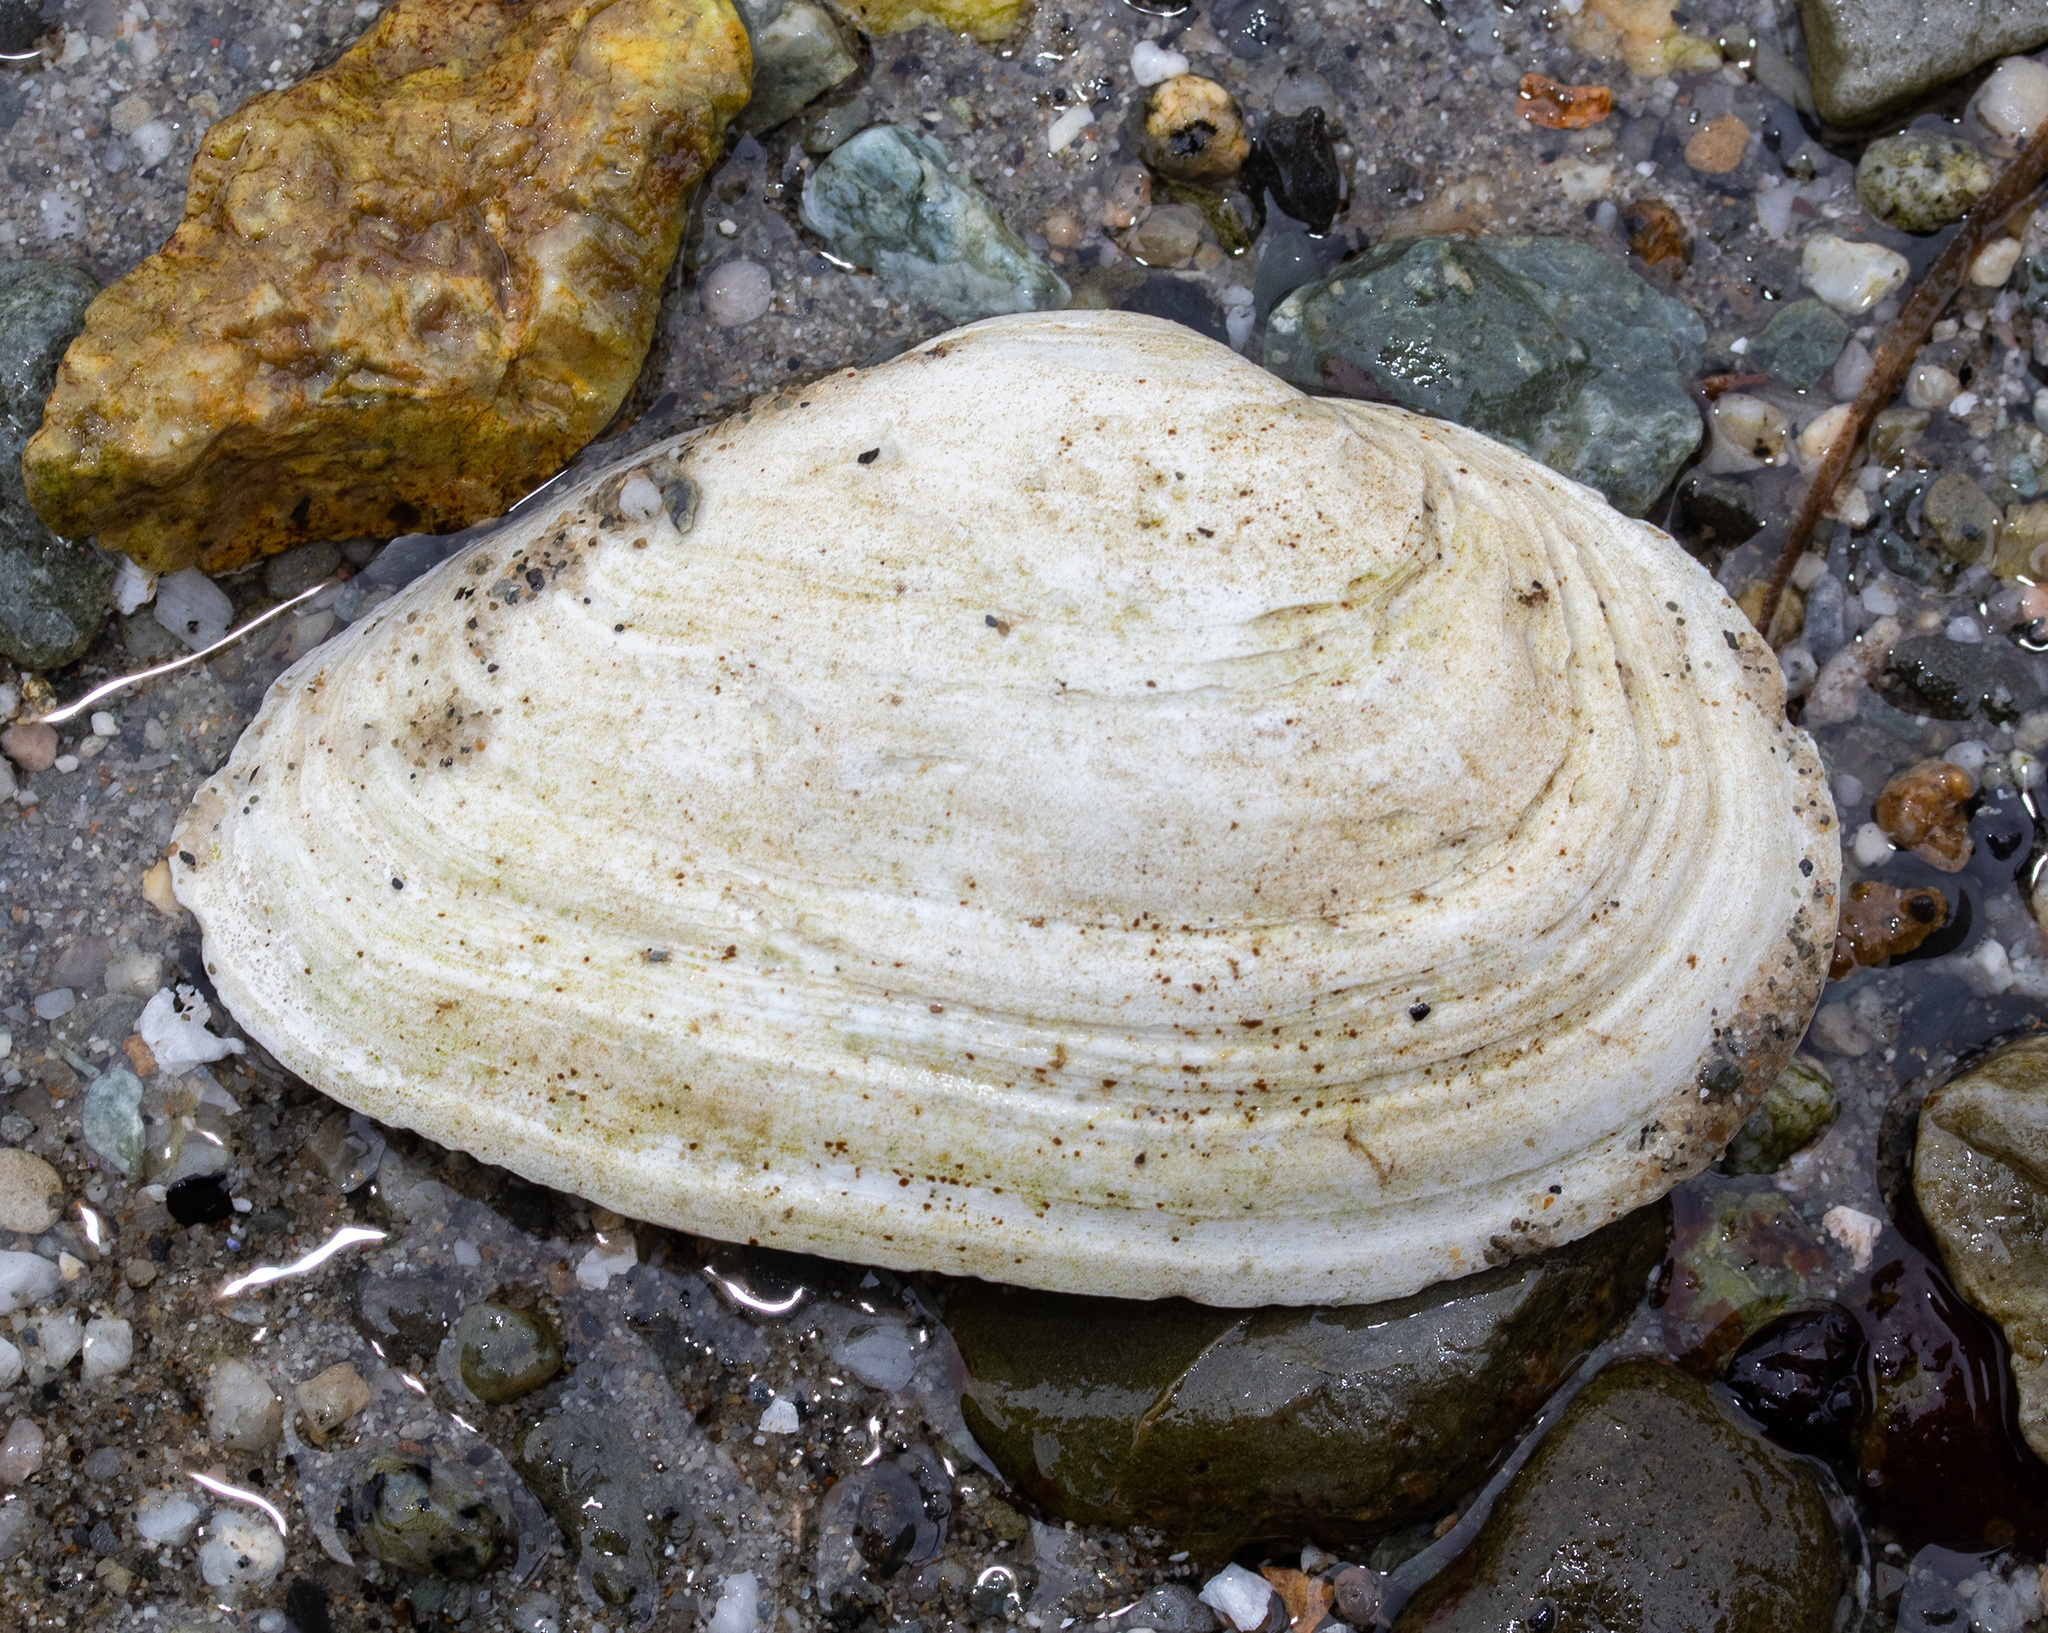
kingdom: Animalia
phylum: Mollusca
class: Bivalvia
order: Myida
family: Myidae
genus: Mya
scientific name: Mya arenaria
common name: Soft-shelled clam
